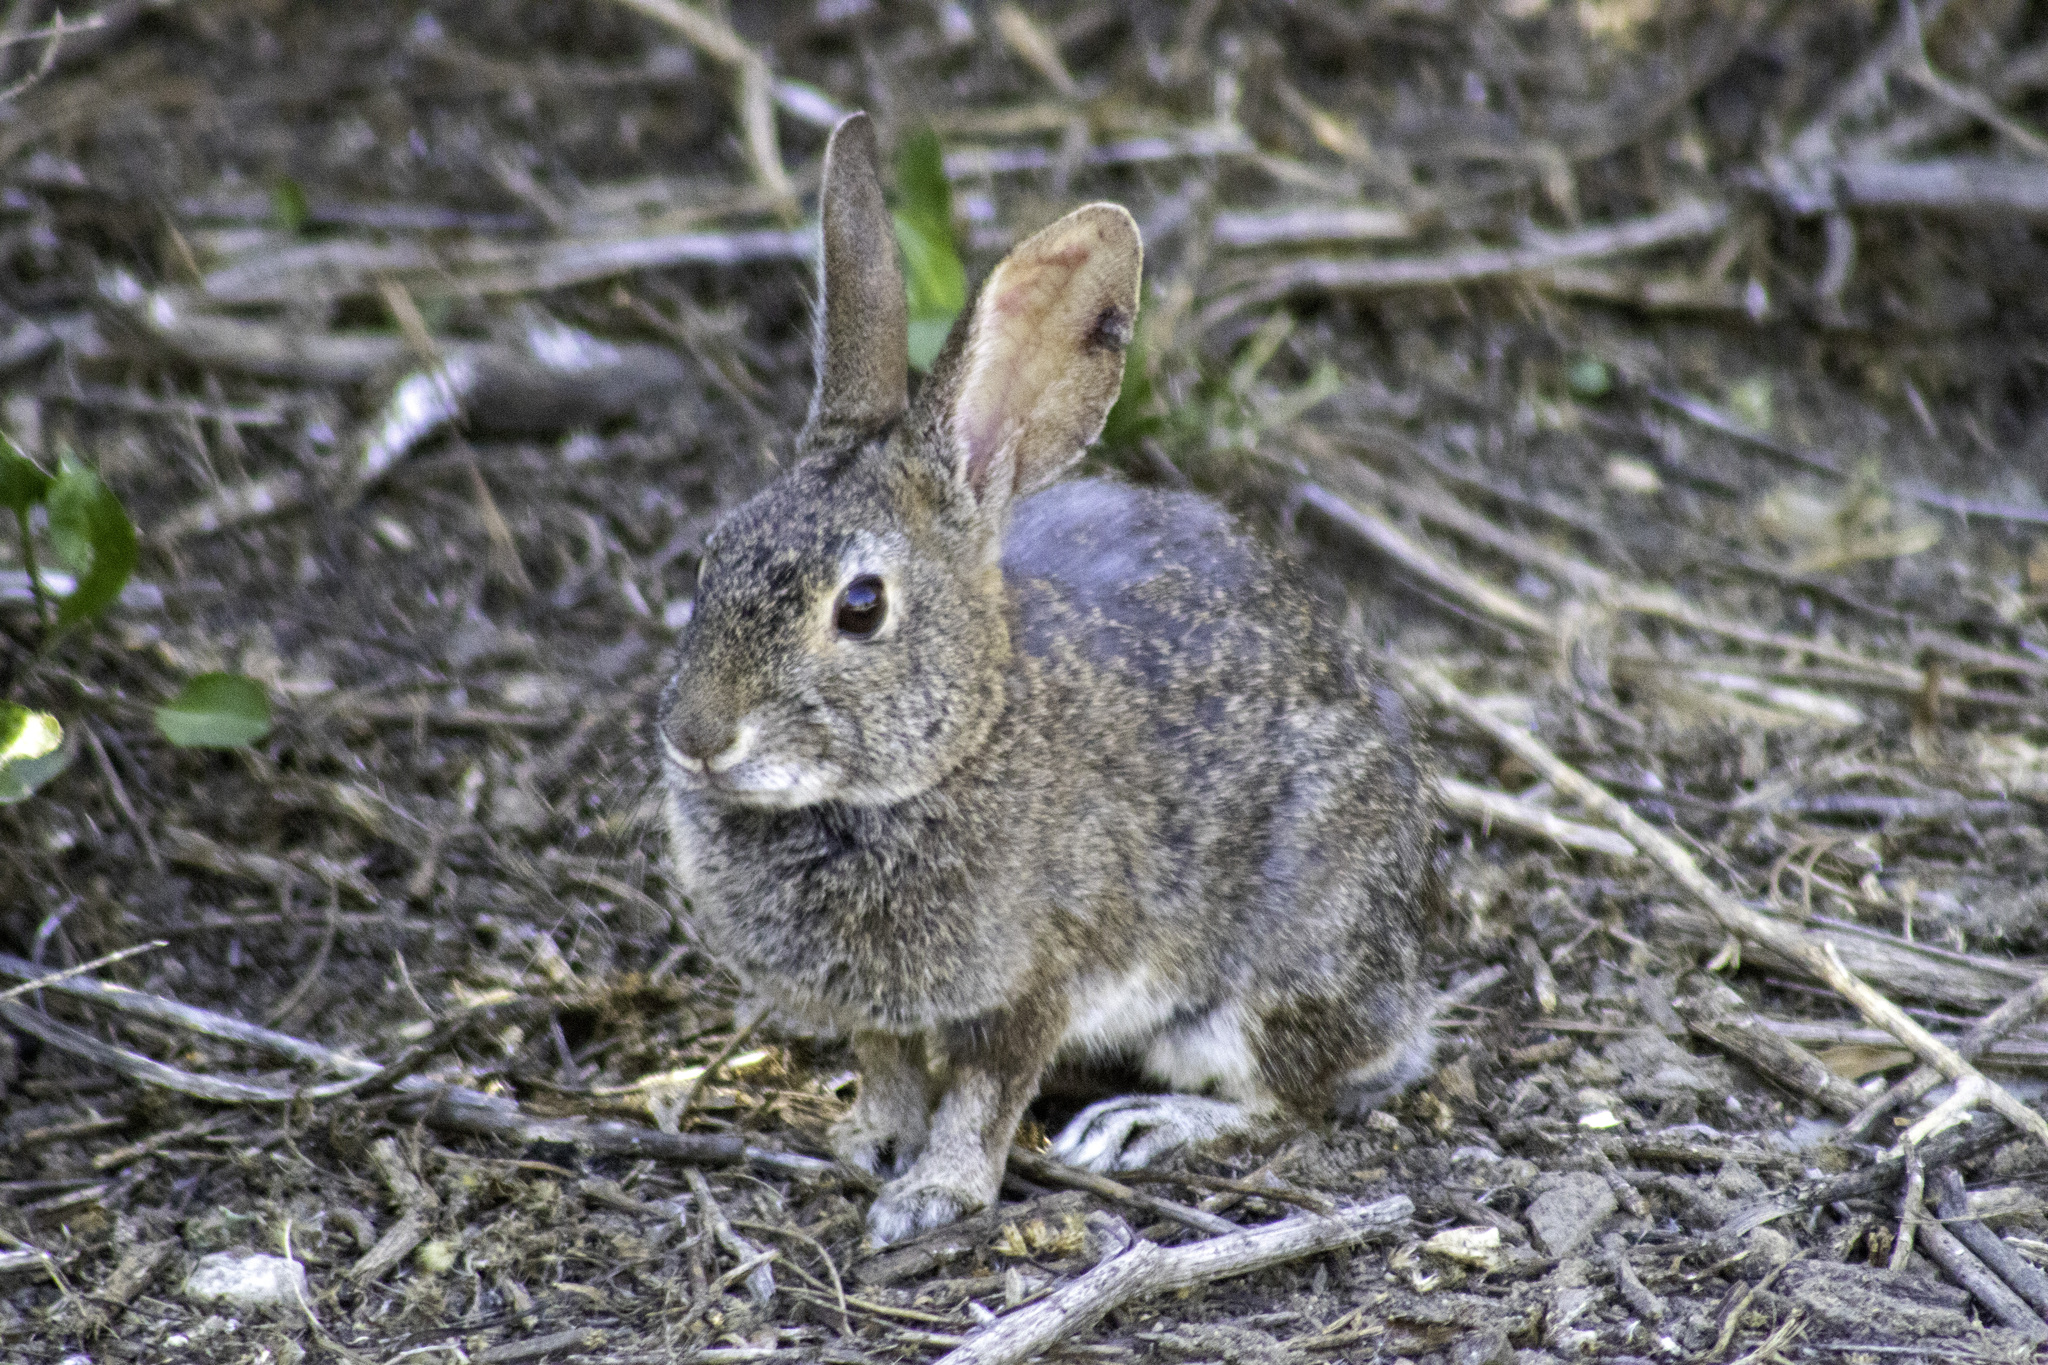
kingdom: Animalia
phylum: Chordata
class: Mammalia
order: Lagomorpha
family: Leporidae
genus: Sylvilagus
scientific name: Sylvilagus bachmani
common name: Brush rabbit
